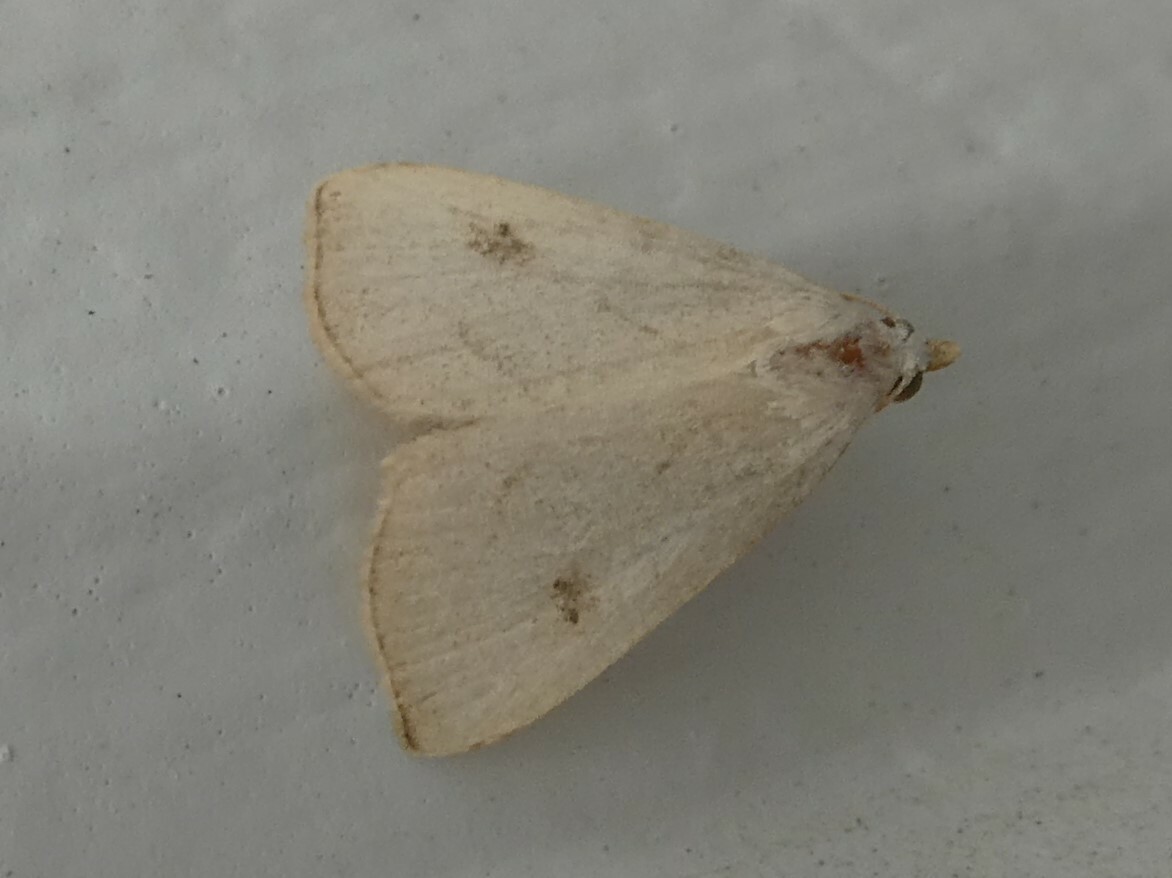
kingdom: Animalia
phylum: Arthropoda
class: Insecta
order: Lepidoptera
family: Erebidae
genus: Rivula
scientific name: Rivula propinqualis
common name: Spotted grass moth
